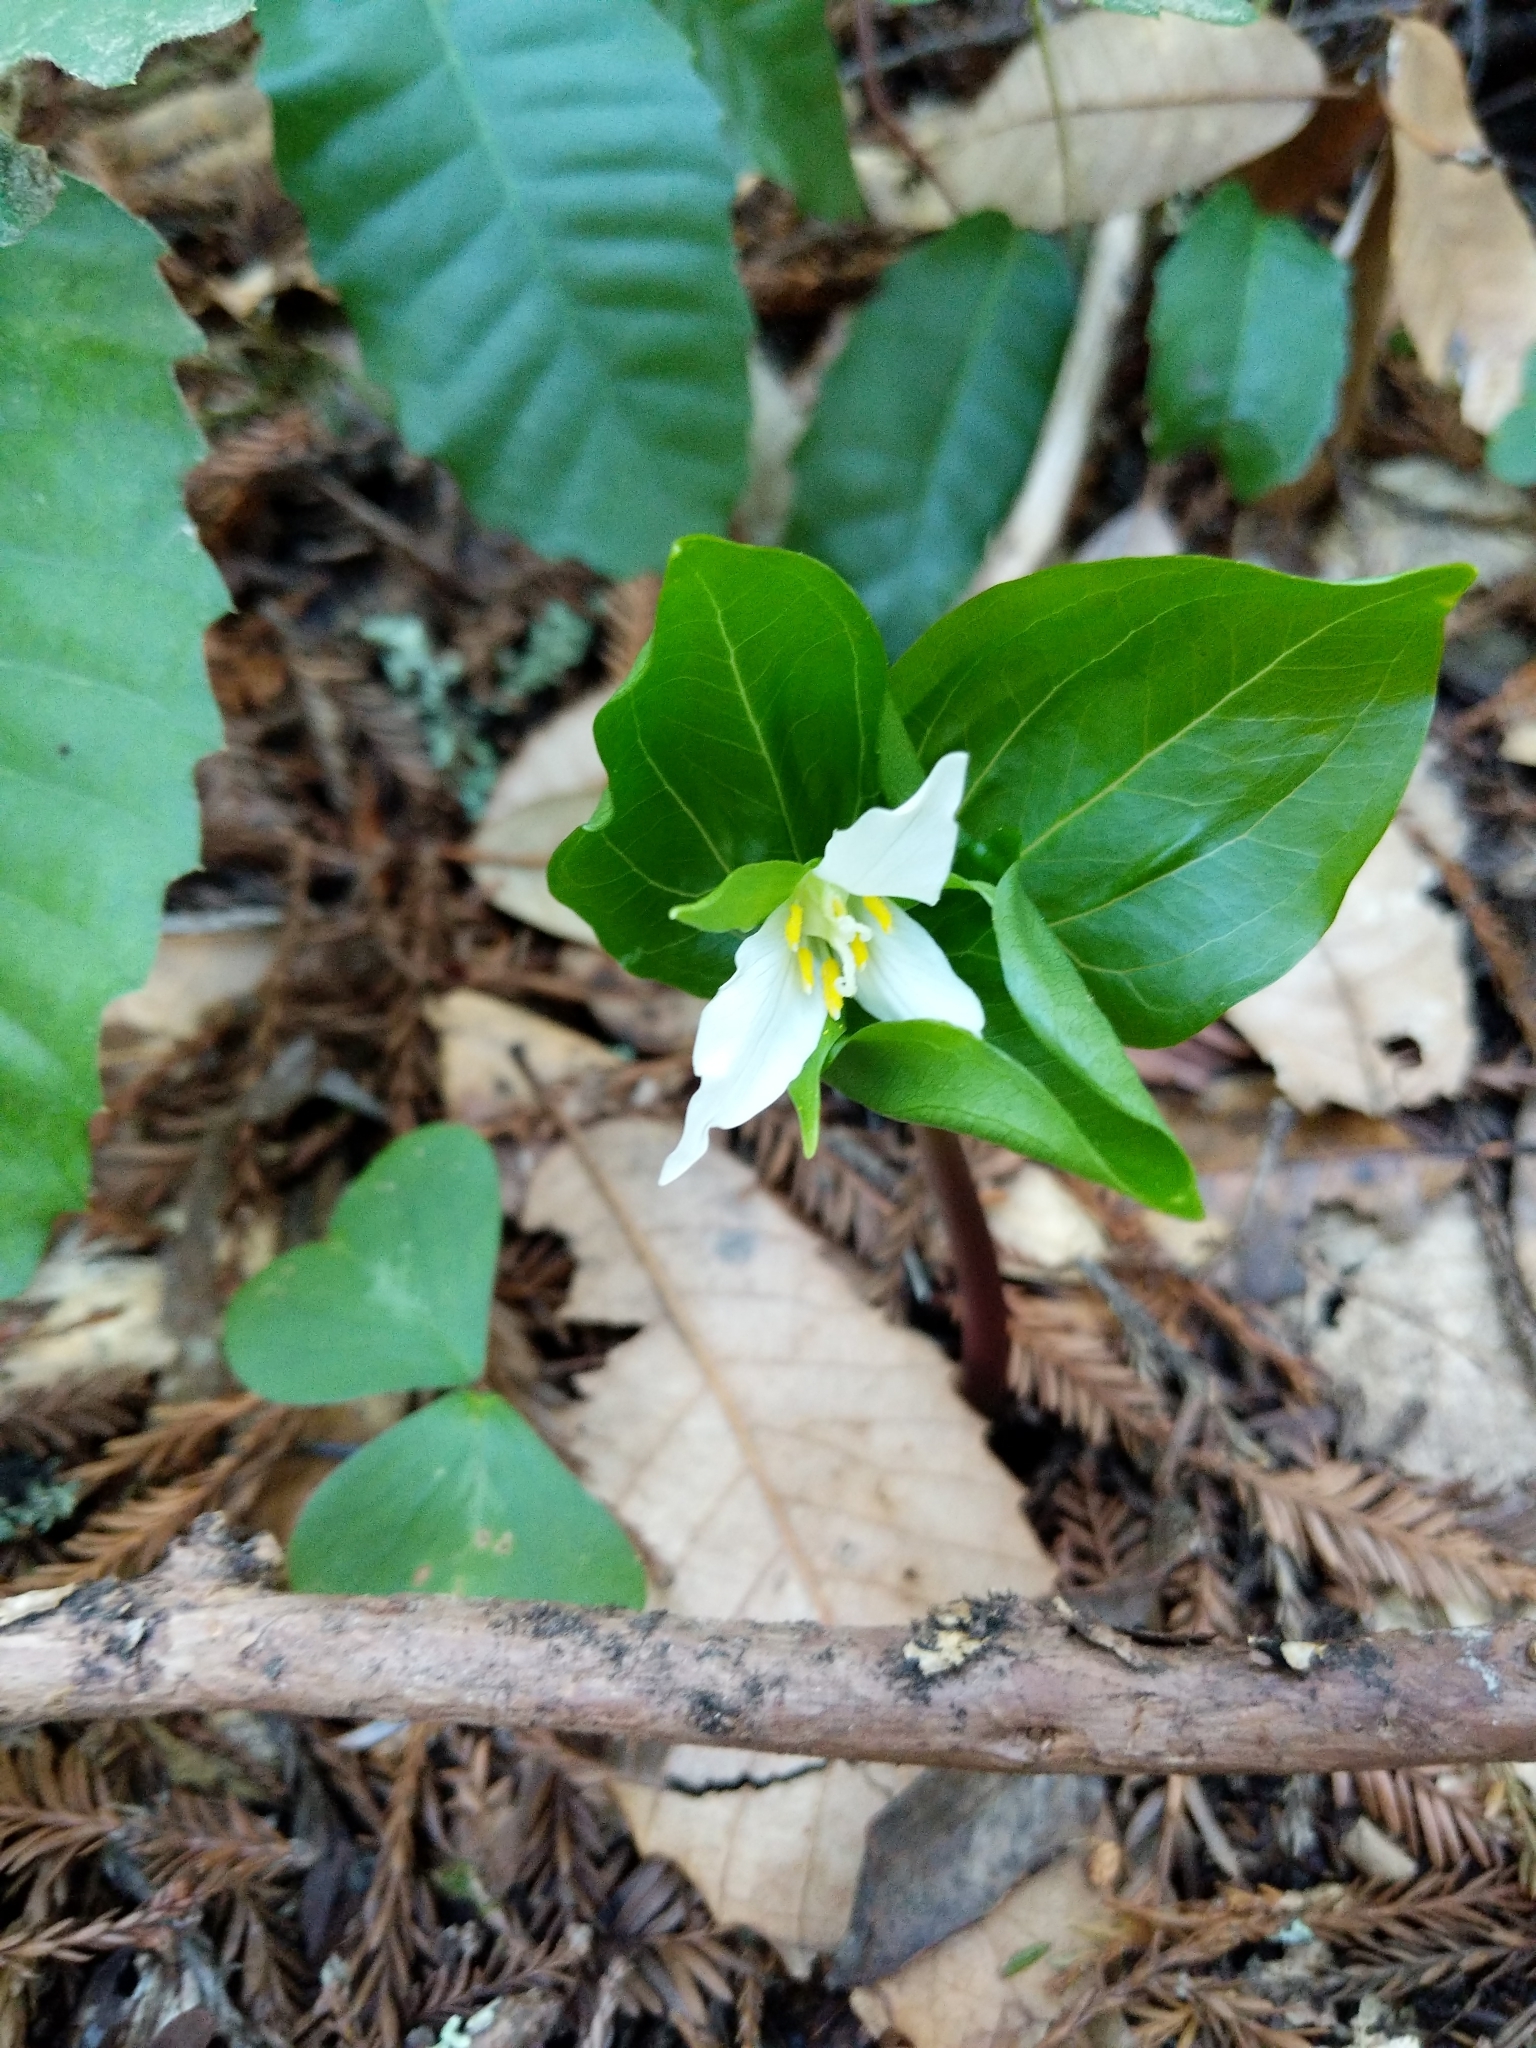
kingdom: Plantae
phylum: Tracheophyta
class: Liliopsida
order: Liliales
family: Melanthiaceae
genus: Trillium
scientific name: Trillium ovatum
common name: Pacific trillium
